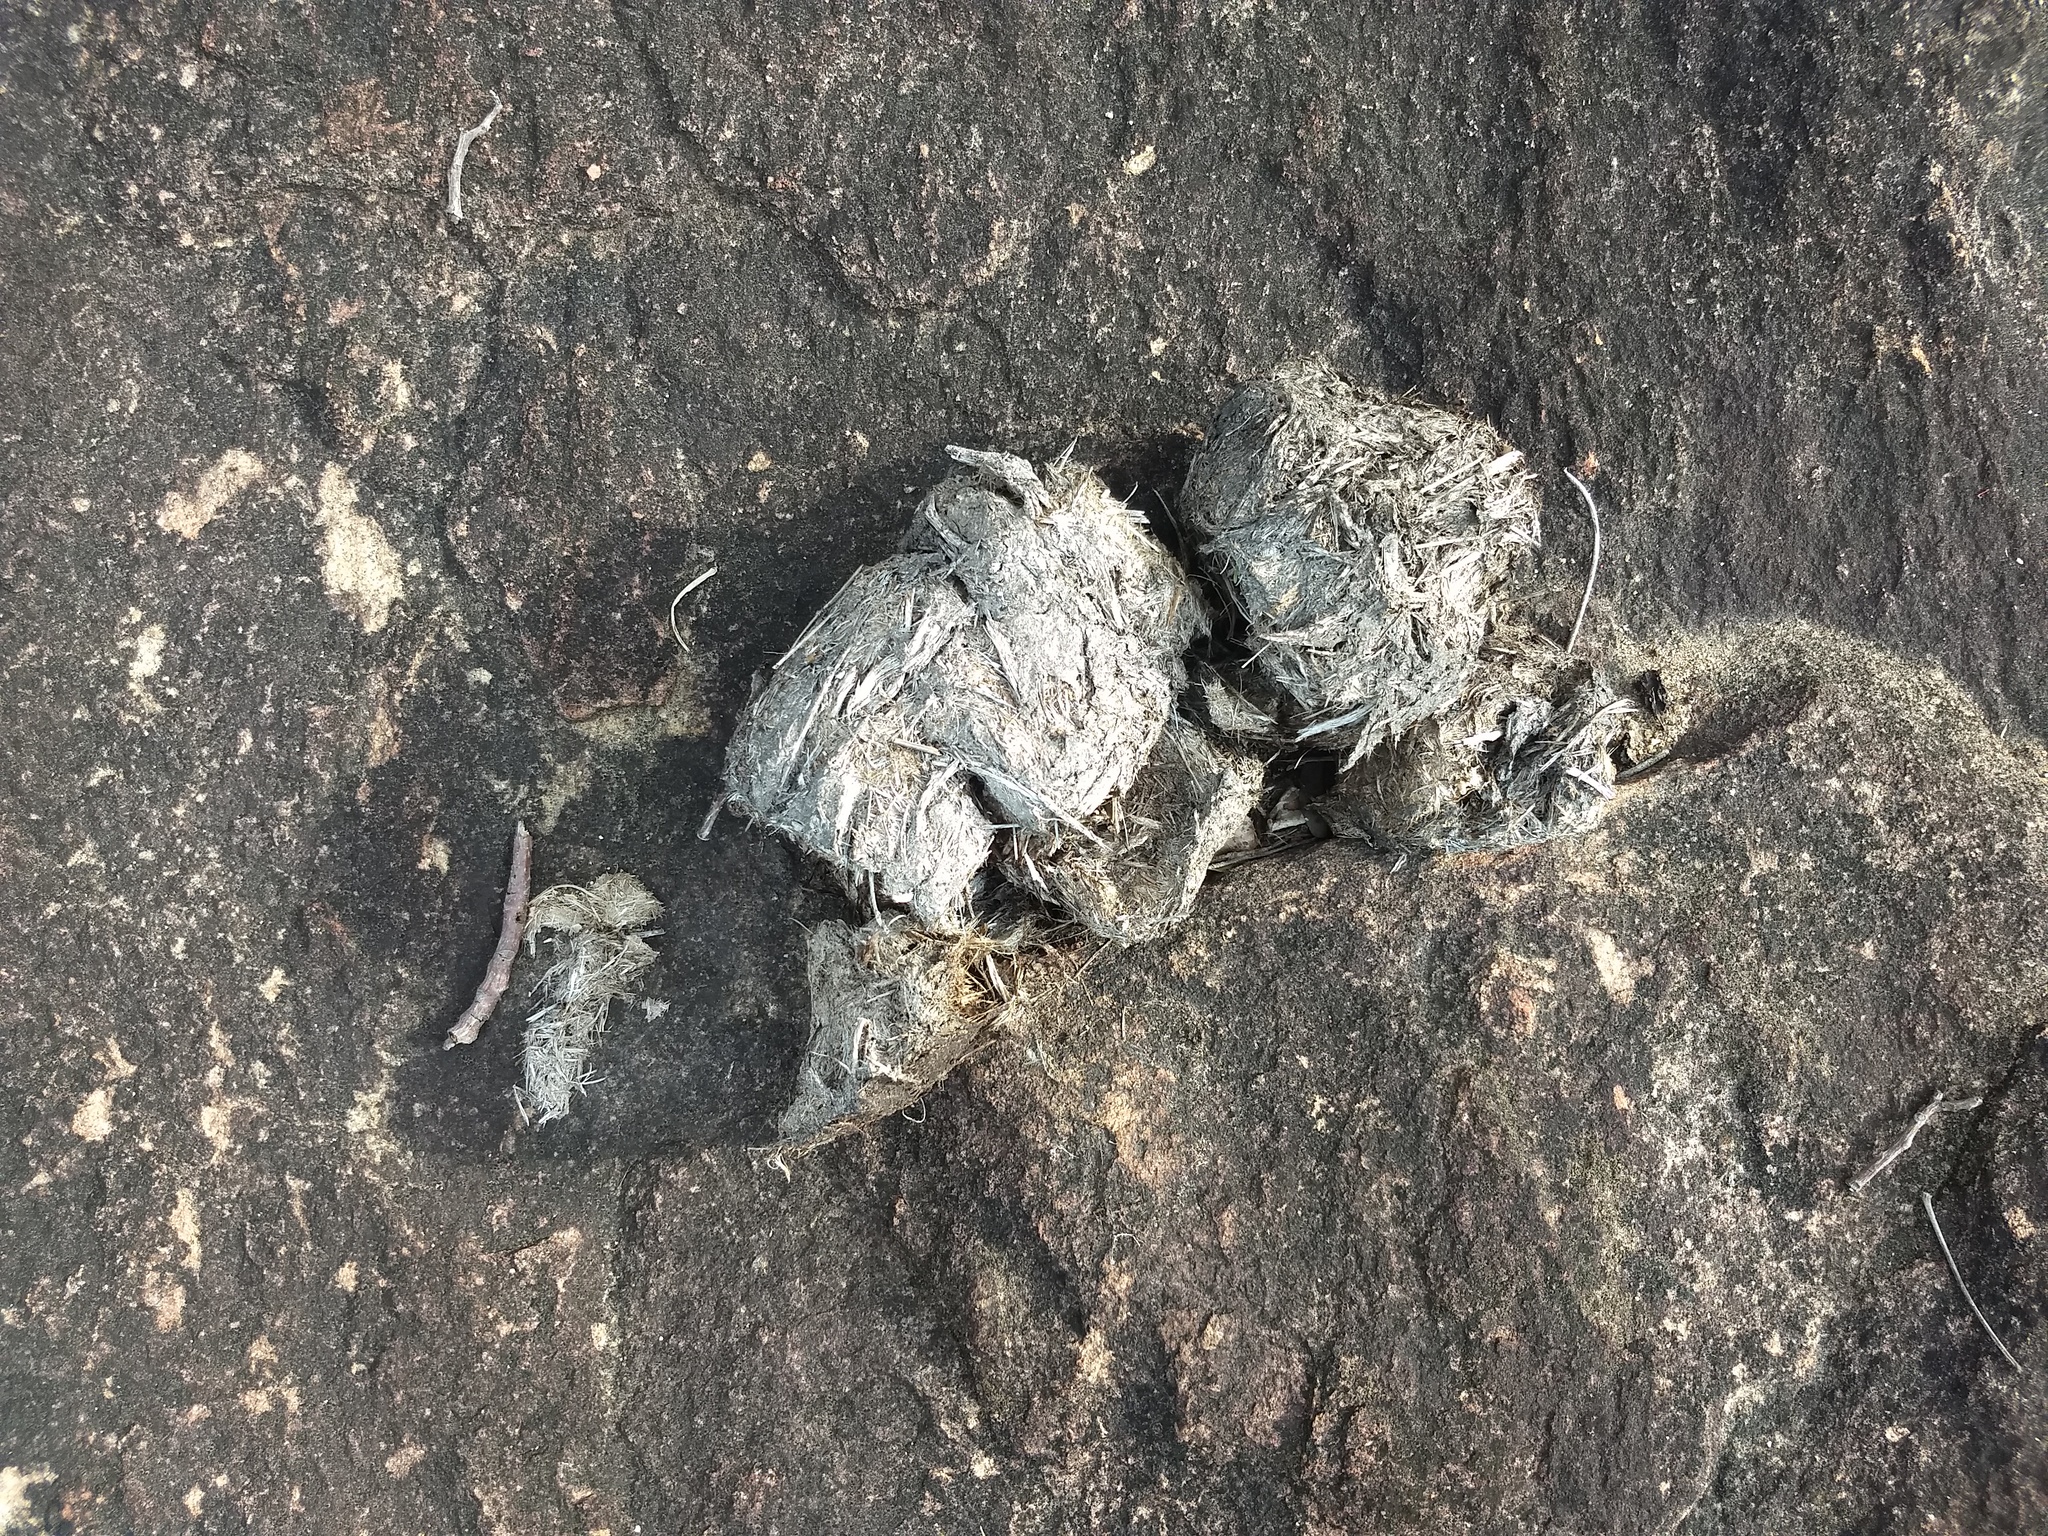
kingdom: Animalia
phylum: Chordata
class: Mammalia
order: Proboscidea
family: Elephantidae
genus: Elephas
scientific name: Elephas maximus
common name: Asian elephant
